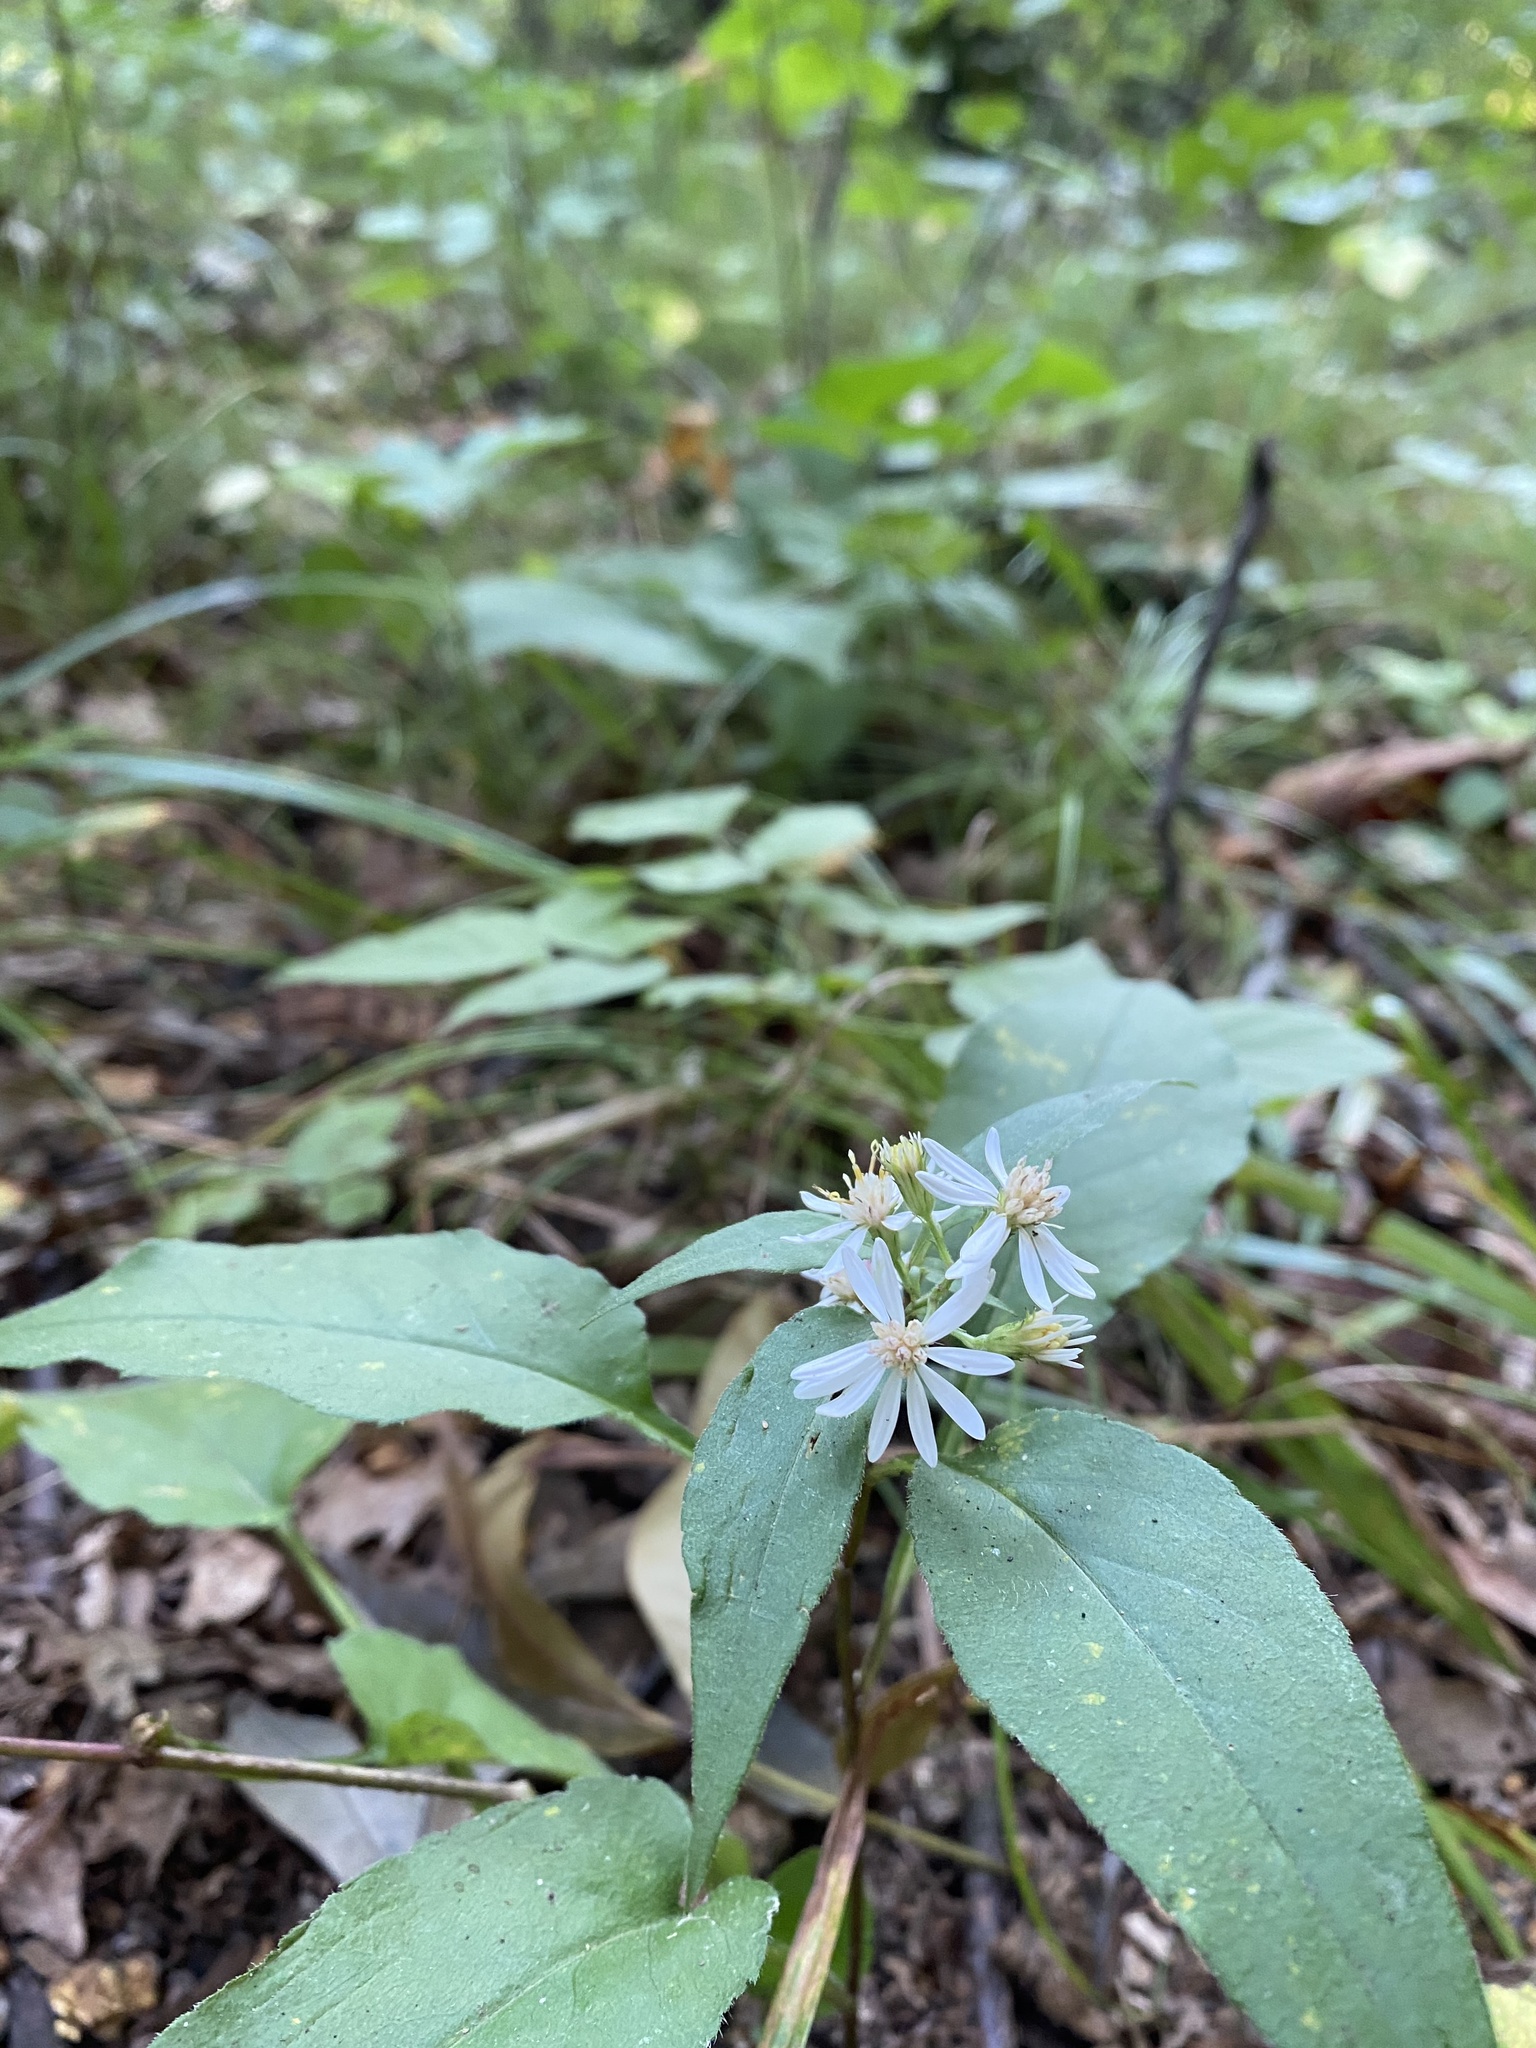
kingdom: Plantae
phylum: Tracheophyta
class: Magnoliopsida
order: Asterales
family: Asteraceae
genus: Symphyotrichum
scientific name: Symphyotrichum urophyllum
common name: Arrow-leaved aster
